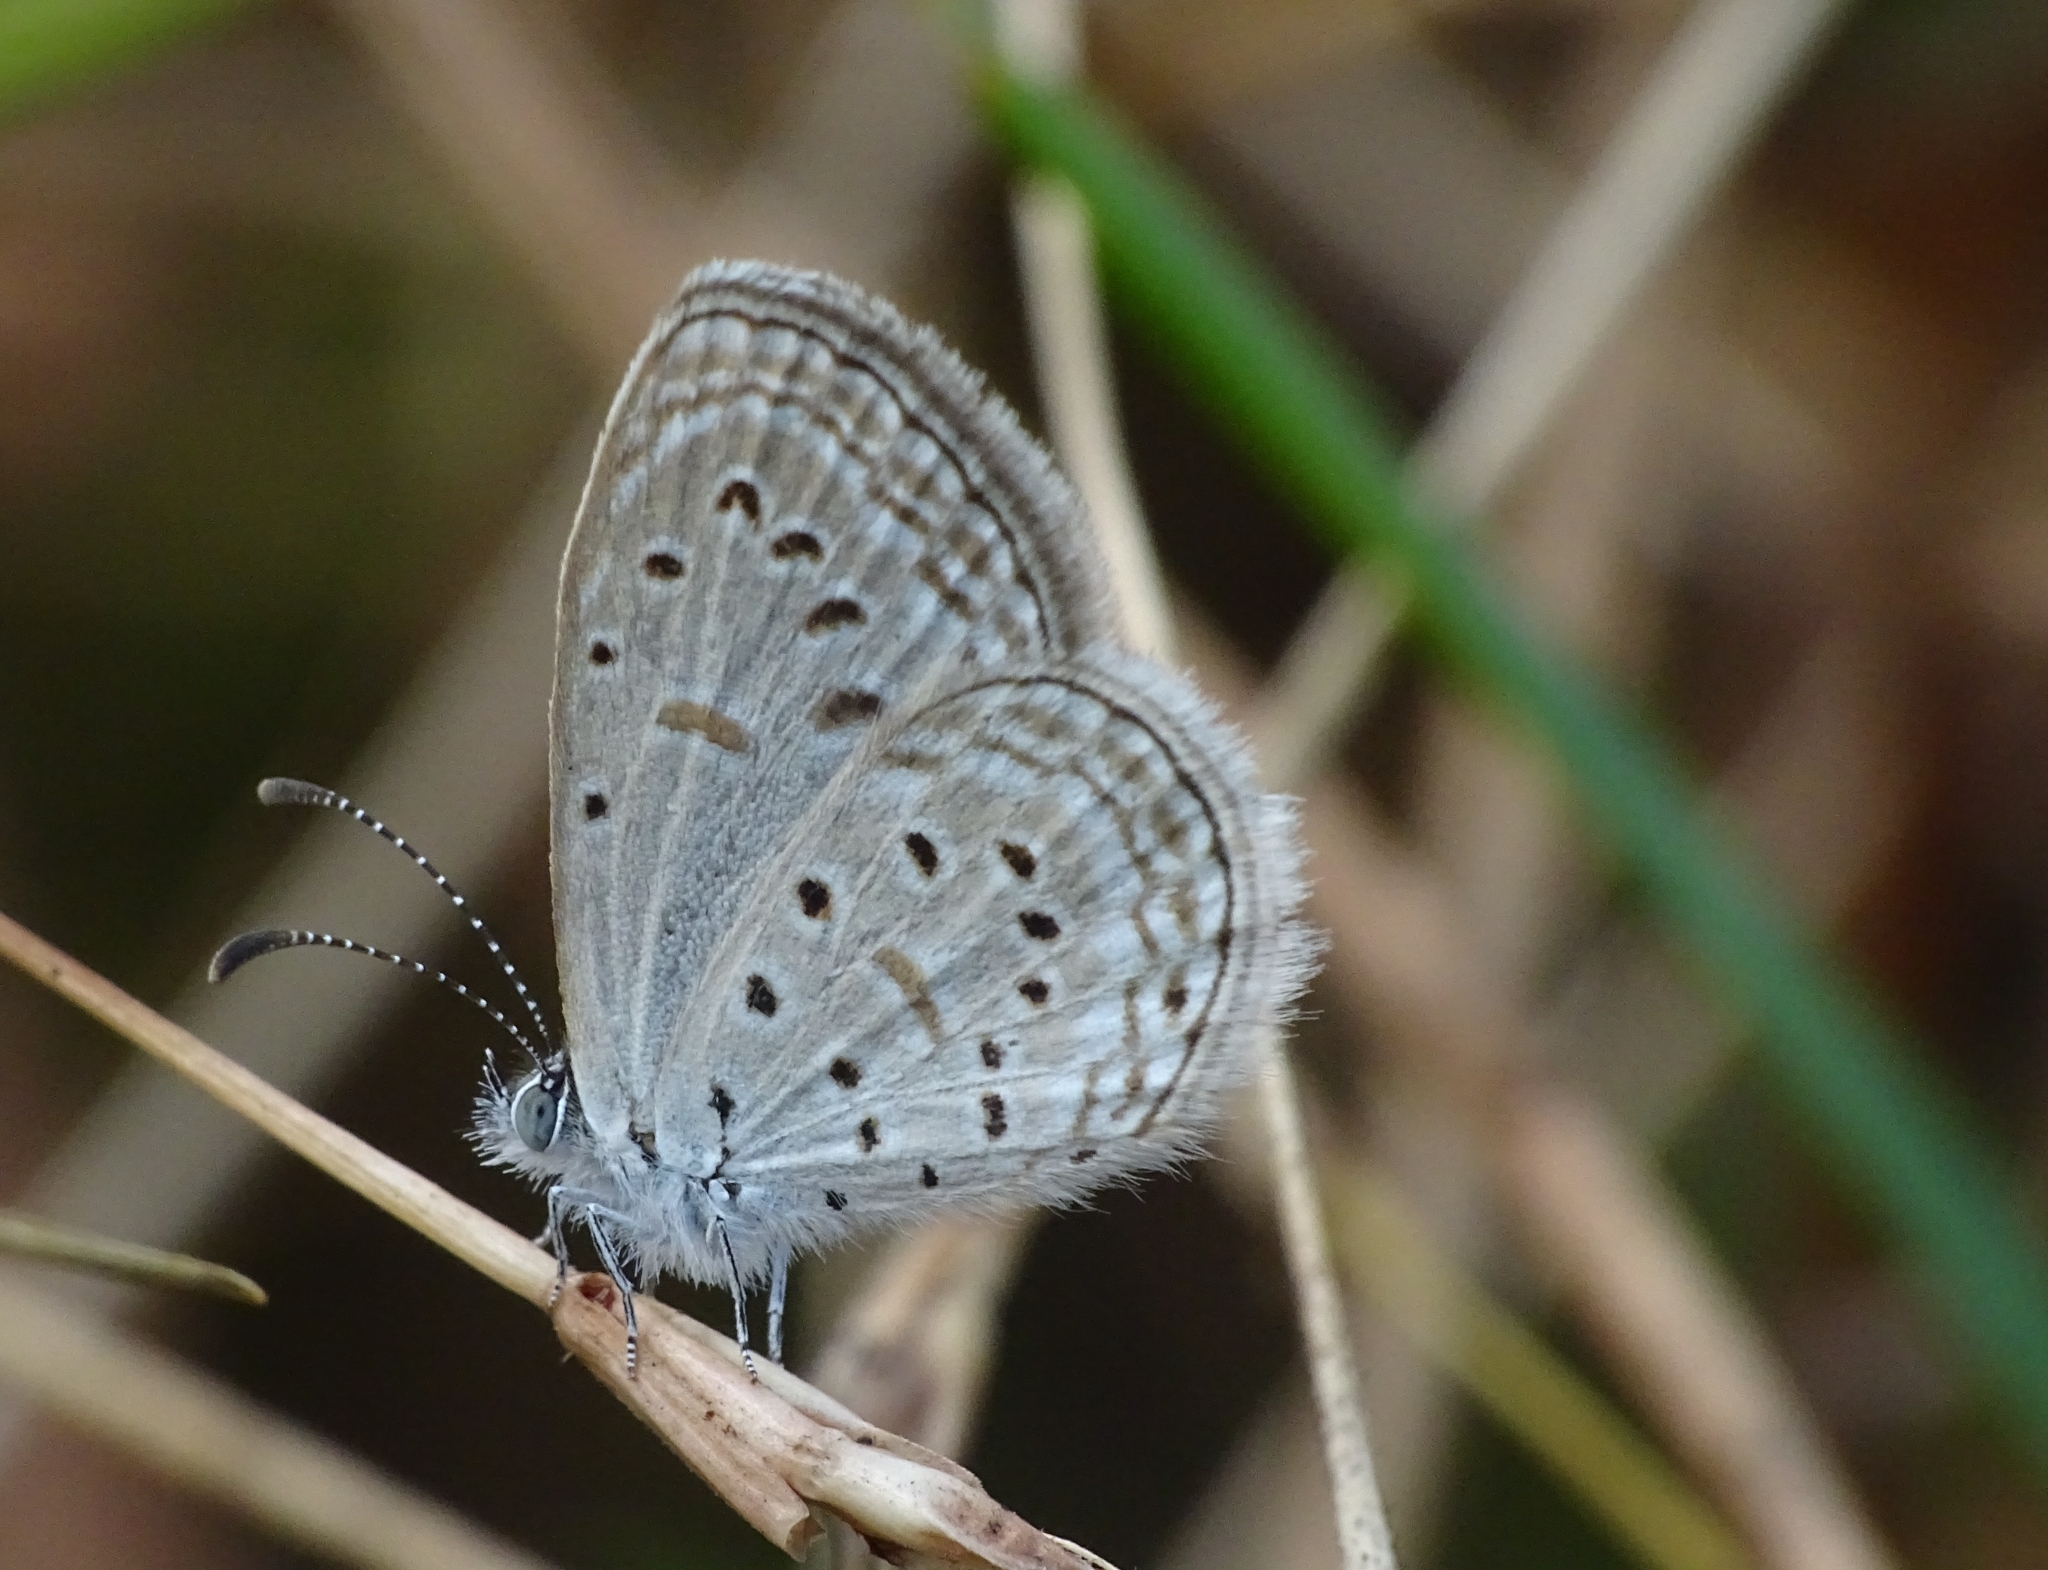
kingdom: Animalia
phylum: Arthropoda
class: Insecta
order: Lepidoptera
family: Lycaenidae
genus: Zizula
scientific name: Zizula hylax
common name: Gaika blue
